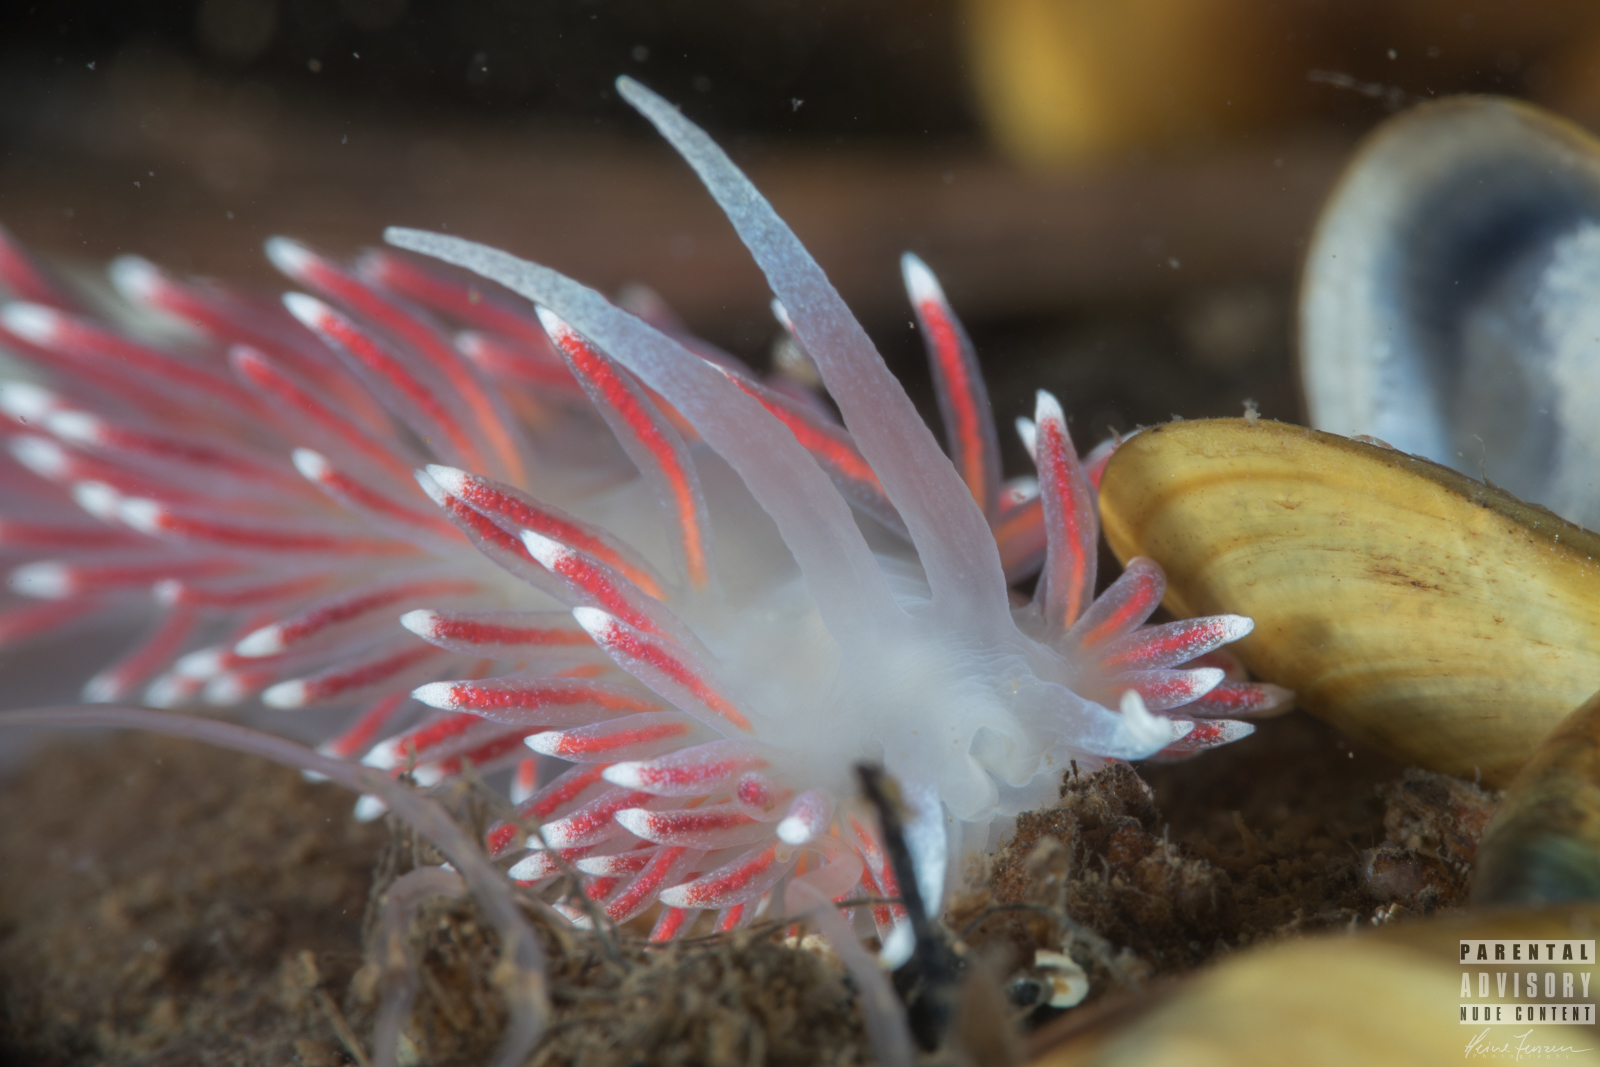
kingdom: Animalia
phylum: Mollusca
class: Gastropoda
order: Nudibranchia
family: Flabellinidae
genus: Carronella
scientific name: Carronella pellucida
